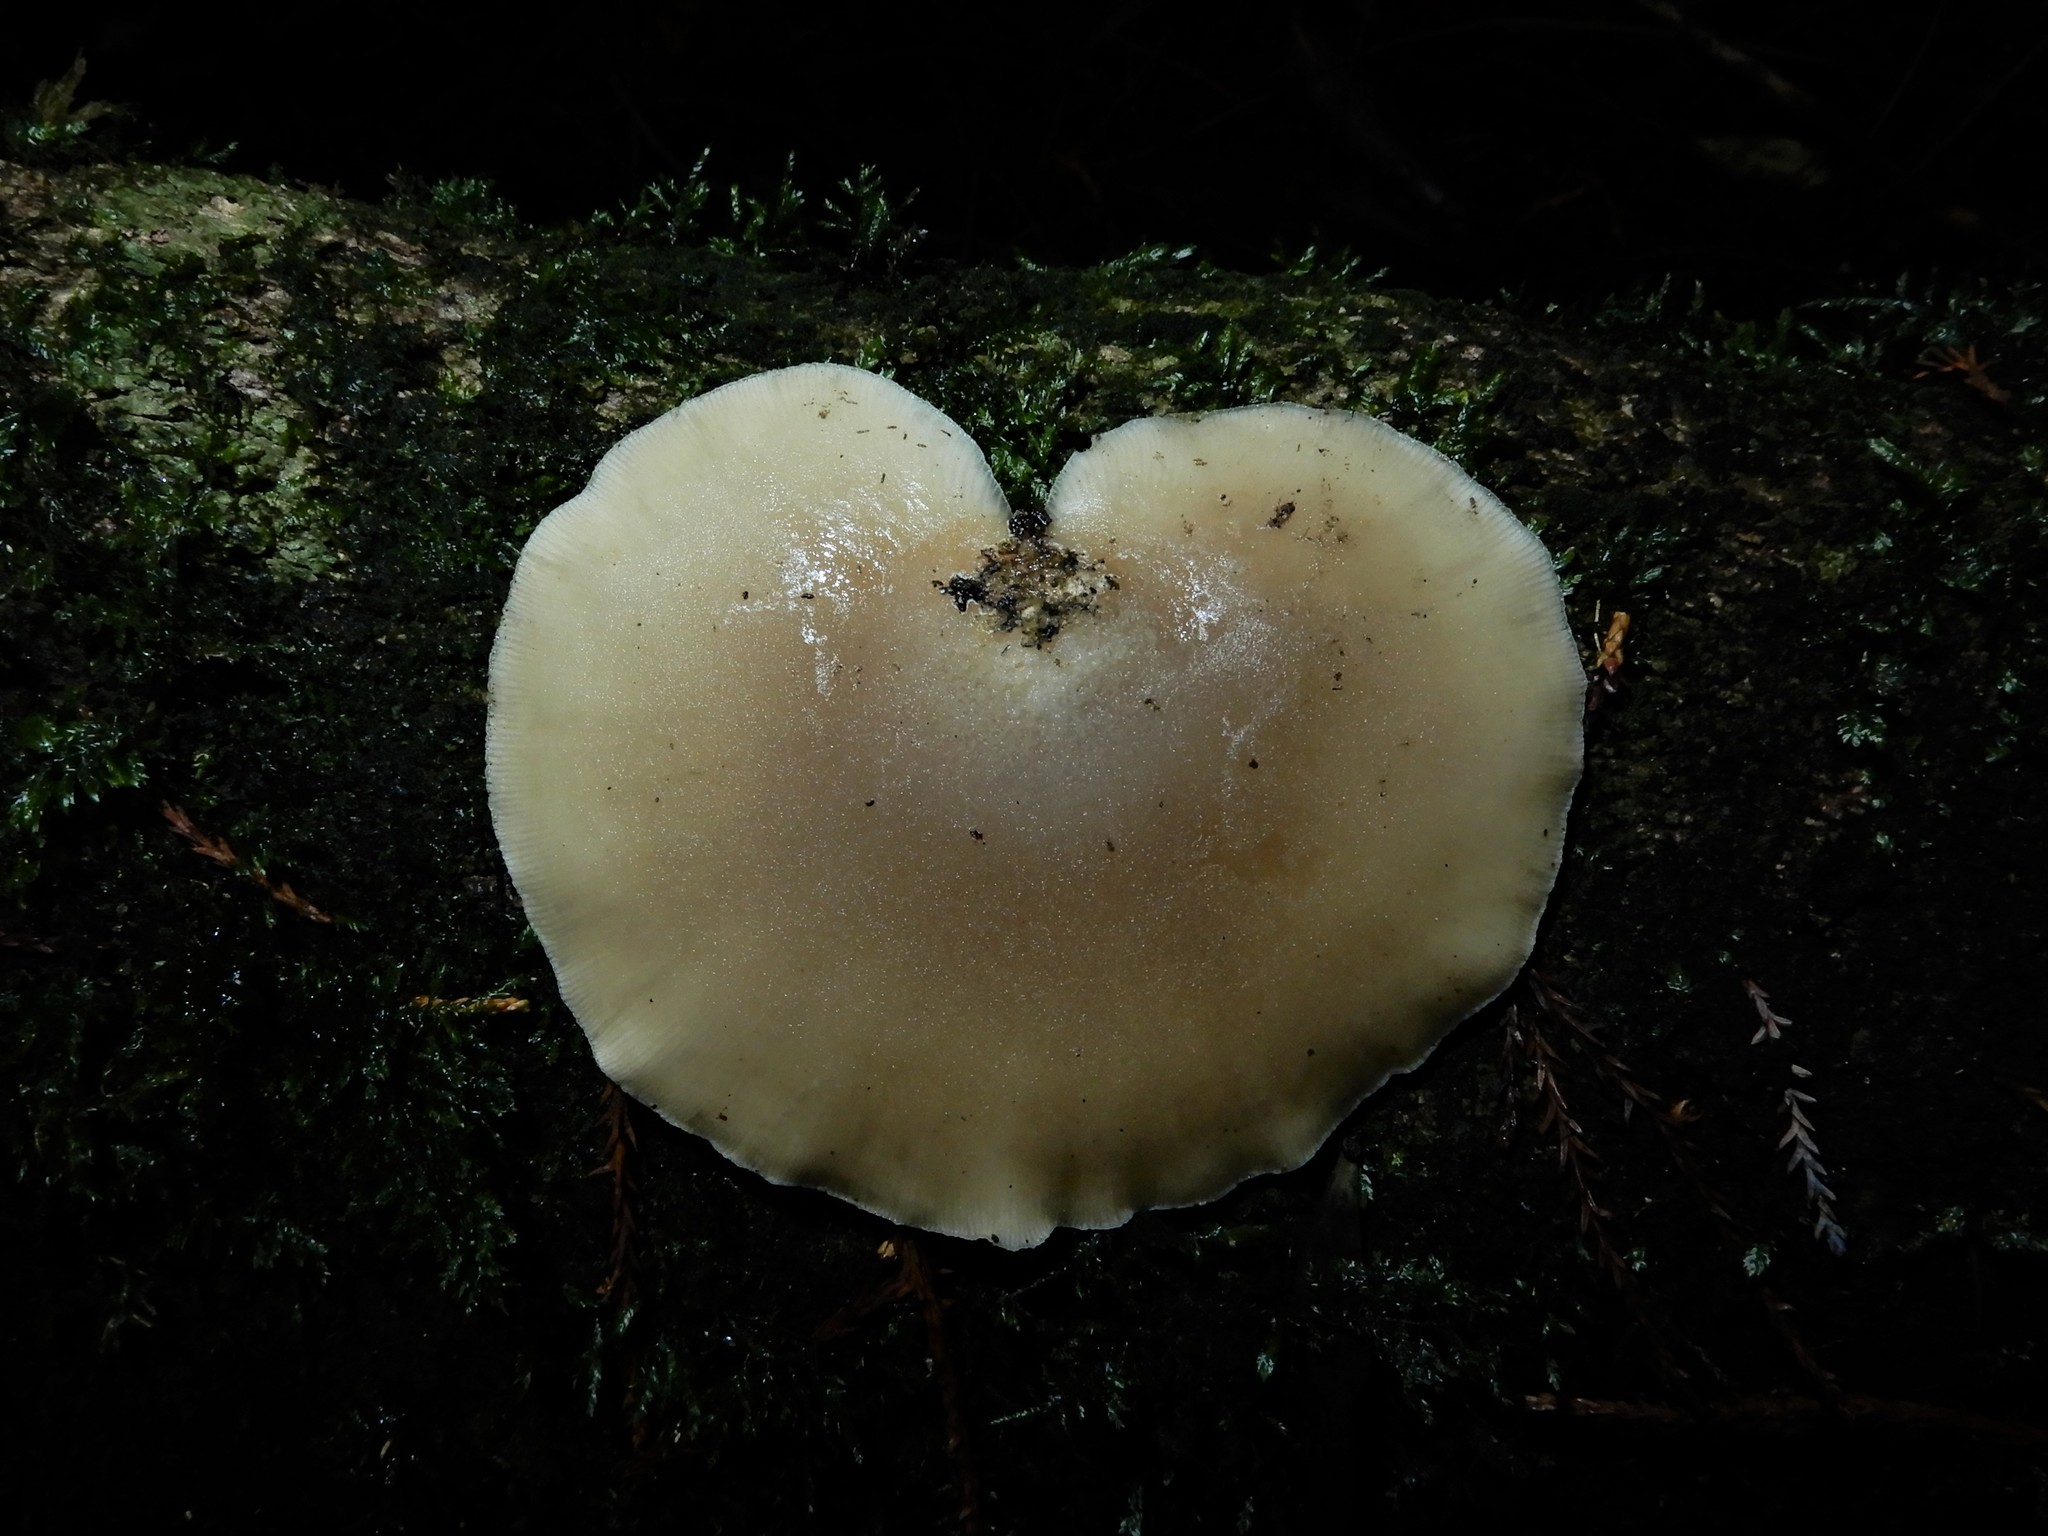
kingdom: Fungi
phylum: Basidiomycota
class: Agaricomycetes
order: Agaricales
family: Tricholomataceae
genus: Conchomyces
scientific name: Conchomyces bursiformis
